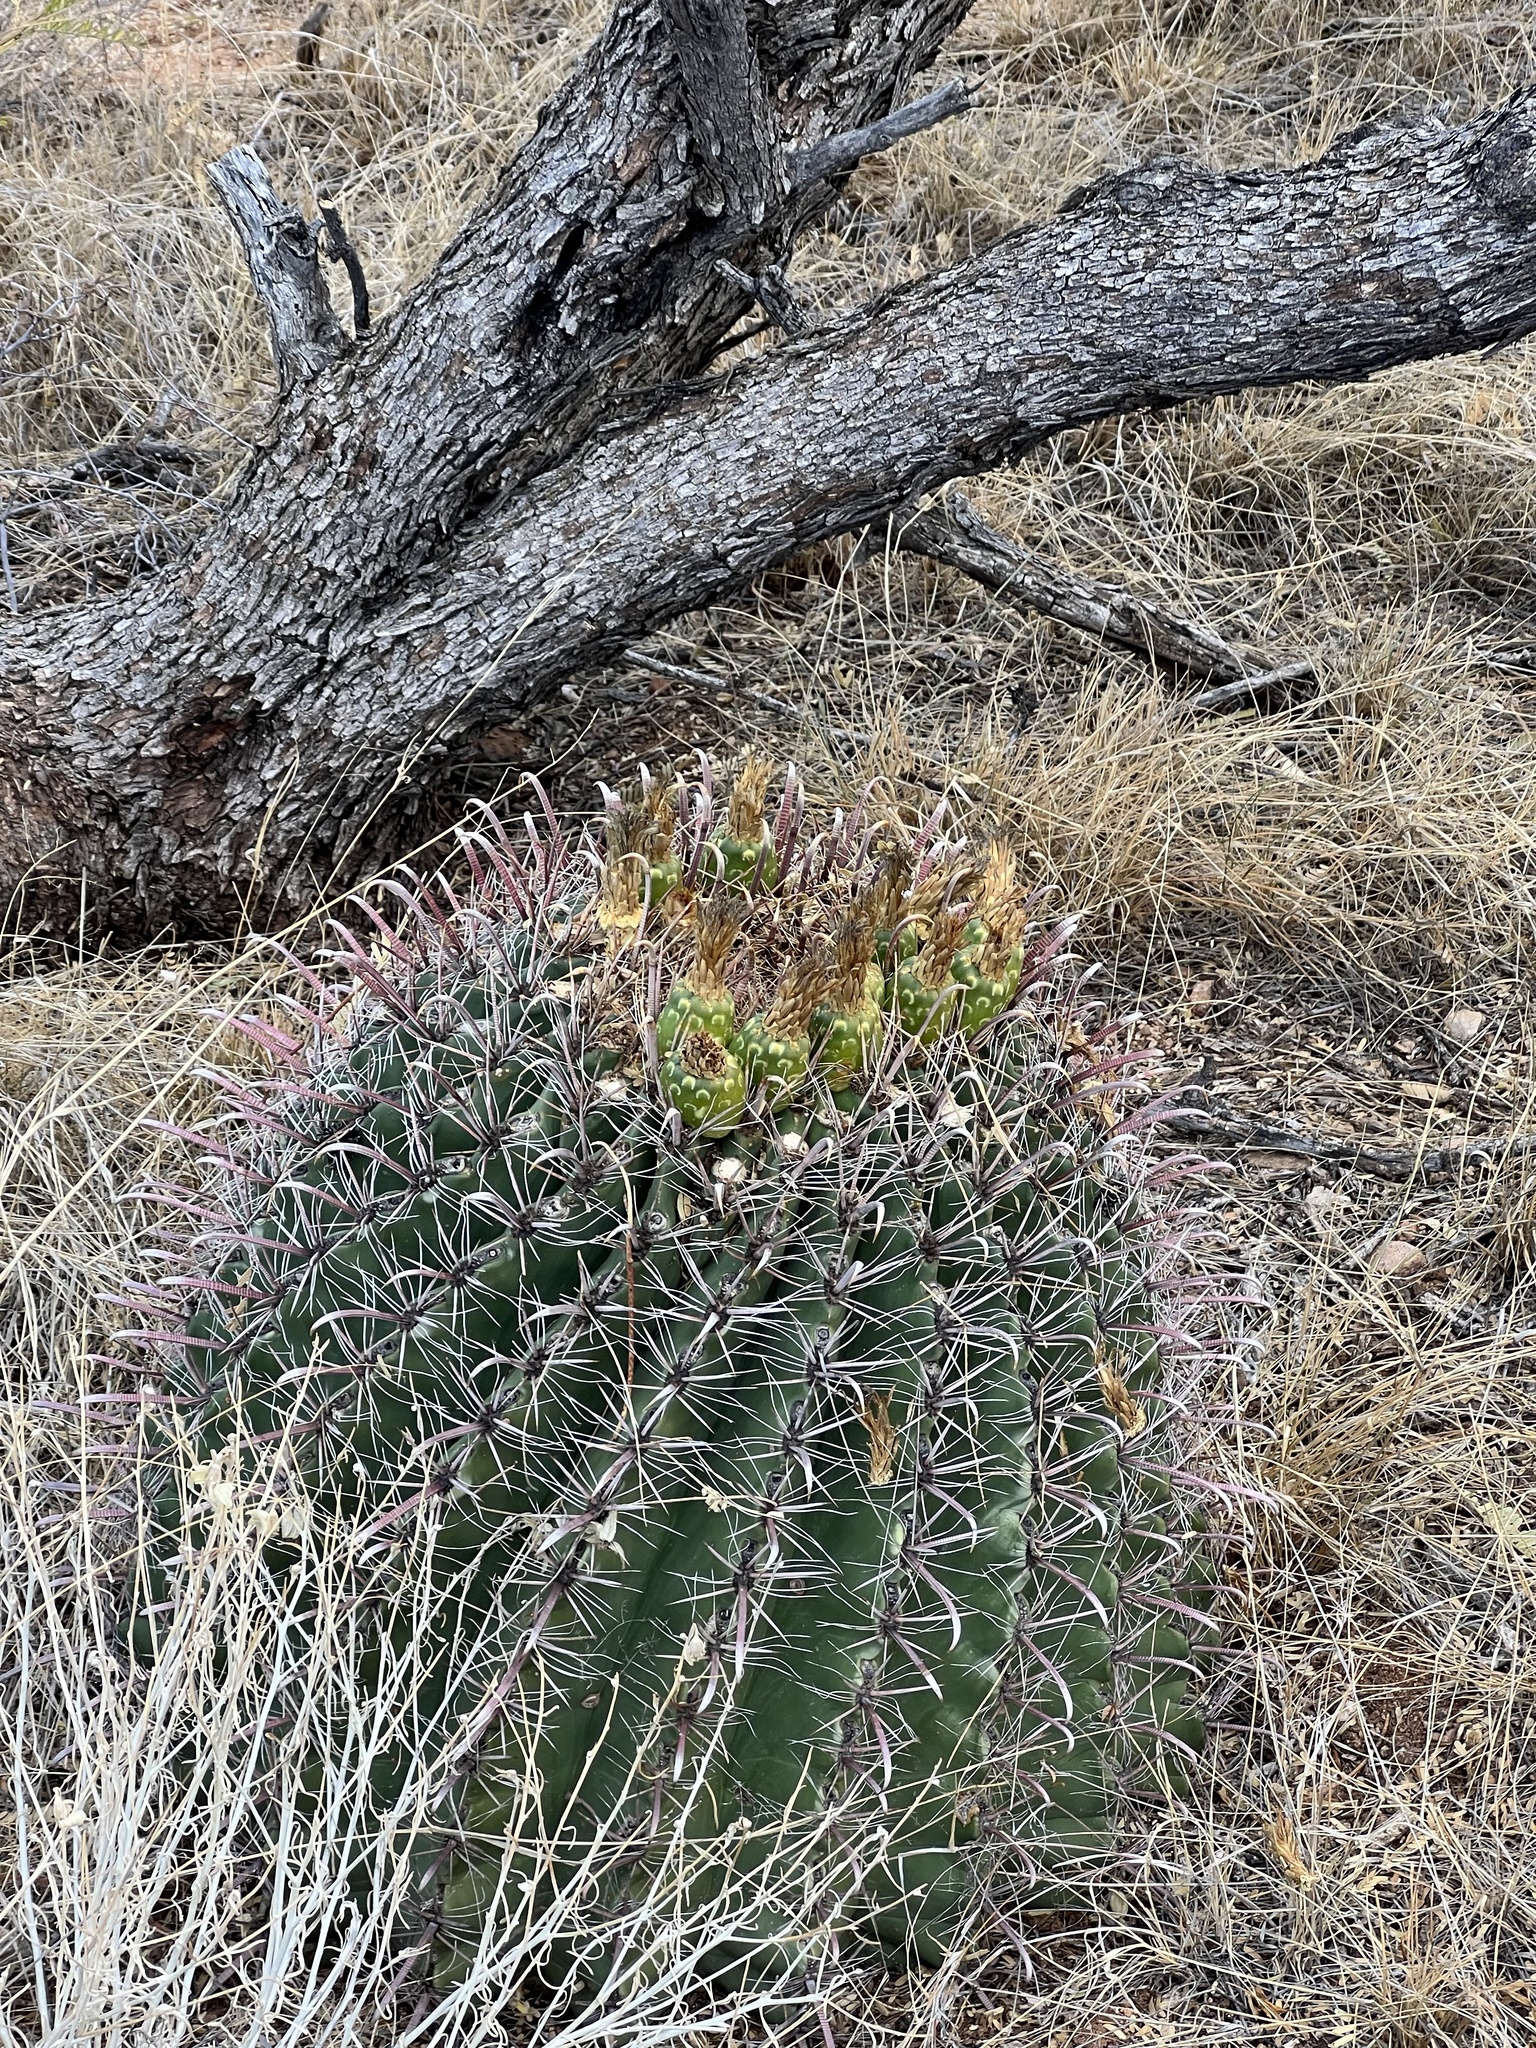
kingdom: Plantae
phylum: Tracheophyta
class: Magnoliopsida
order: Caryophyllales
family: Cactaceae
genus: Ferocactus
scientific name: Ferocactus wislizeni
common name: Candy barrel cactus
